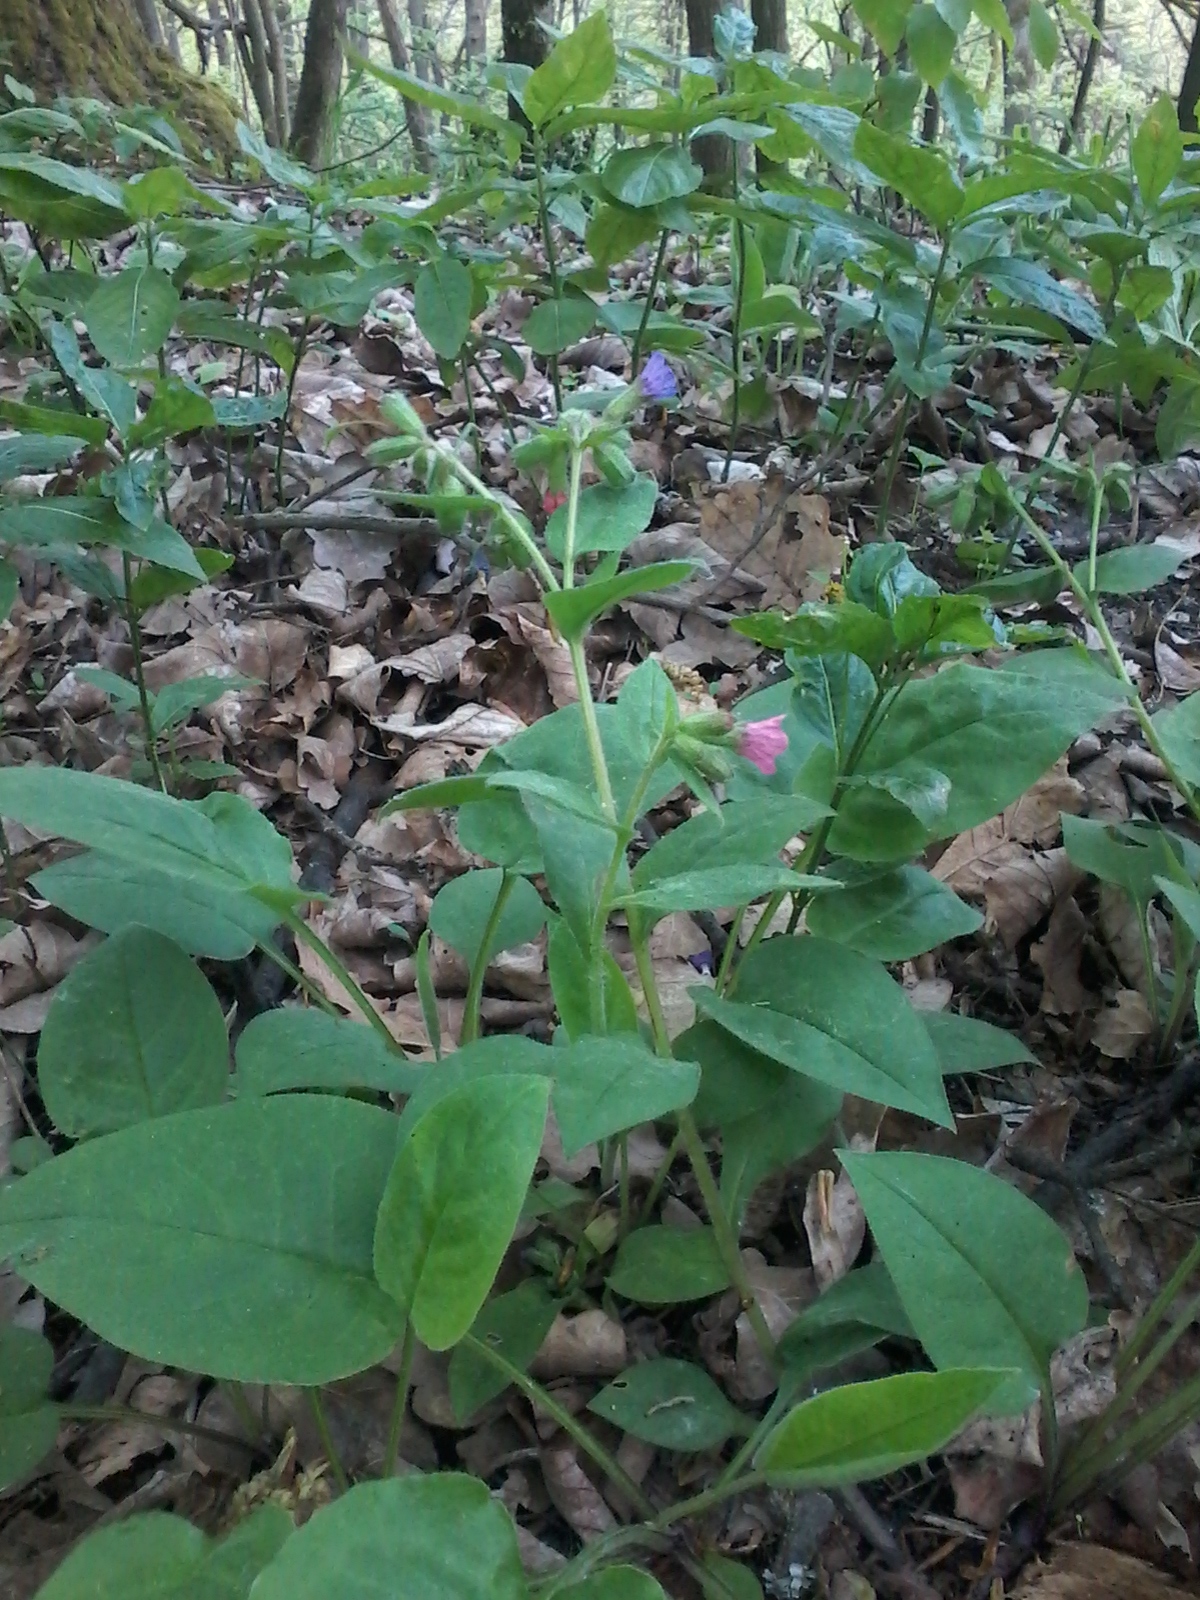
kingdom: Plantae
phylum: Tracheophyta
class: Magnoliopsida
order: Boraginales
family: Boraginaceae
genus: Pulmonaria
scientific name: Pulmonaria obscura
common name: Suffolk lungwort
